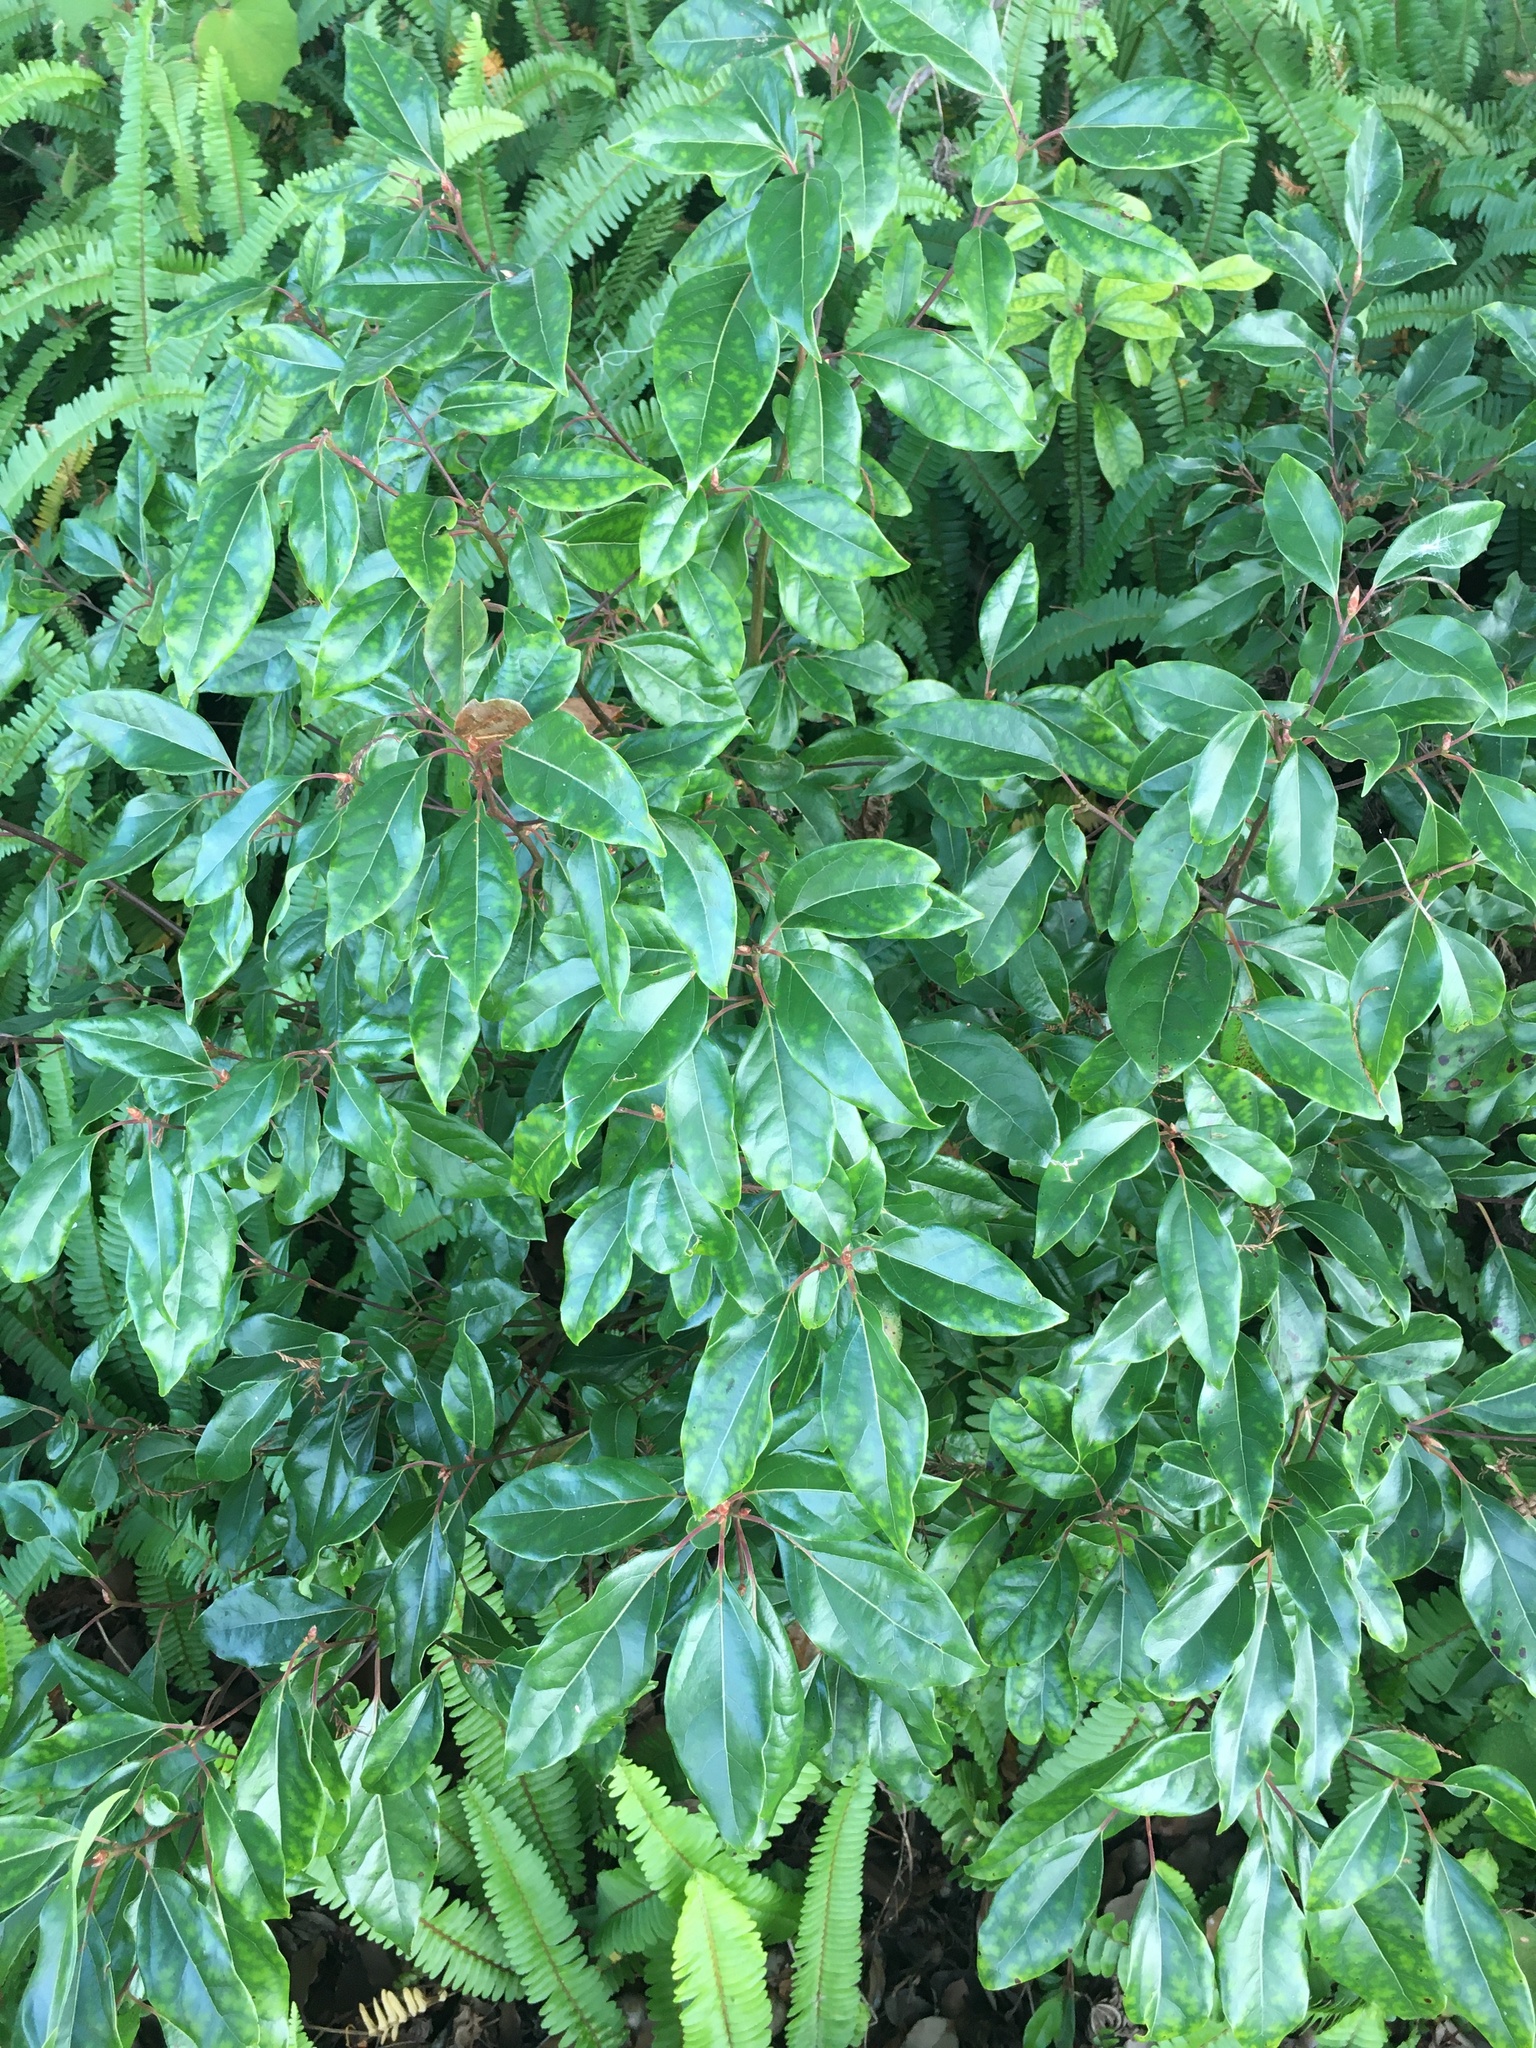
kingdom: Plantae
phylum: Tracheophyta
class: Magnoliopsida
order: Laurales
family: Lauraceae
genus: Cinnamomum
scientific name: Cinnamomum camphora
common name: Camphortree
